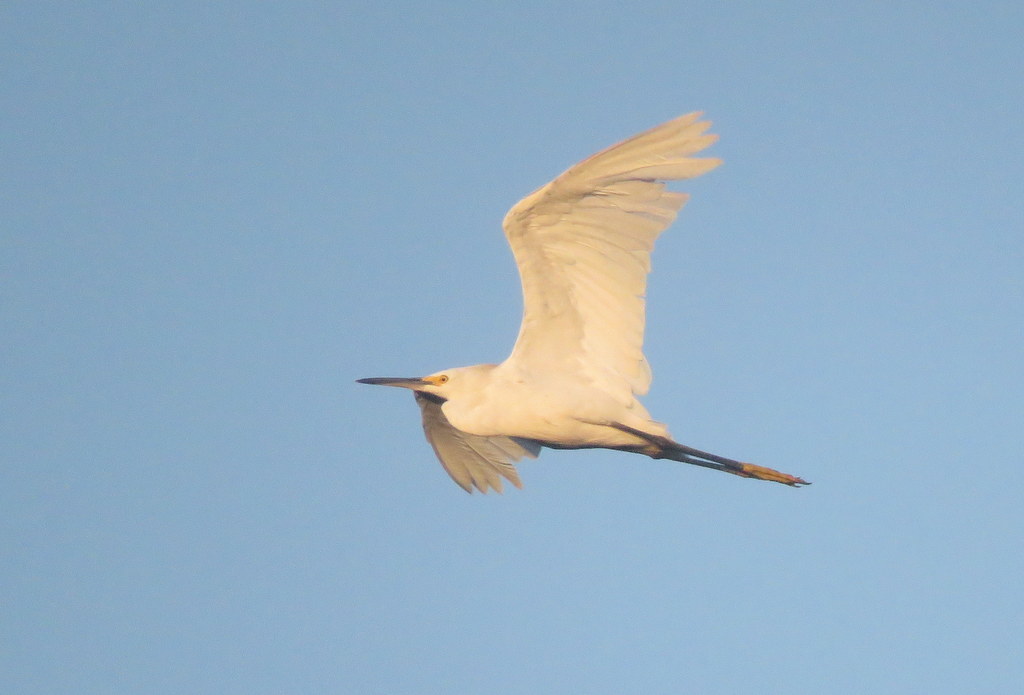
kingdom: Animalia
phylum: Chordata
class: Aves
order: Pelecaniformes
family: Ardeidae
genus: Egretta
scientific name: Egretta thula
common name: Snowy egret
